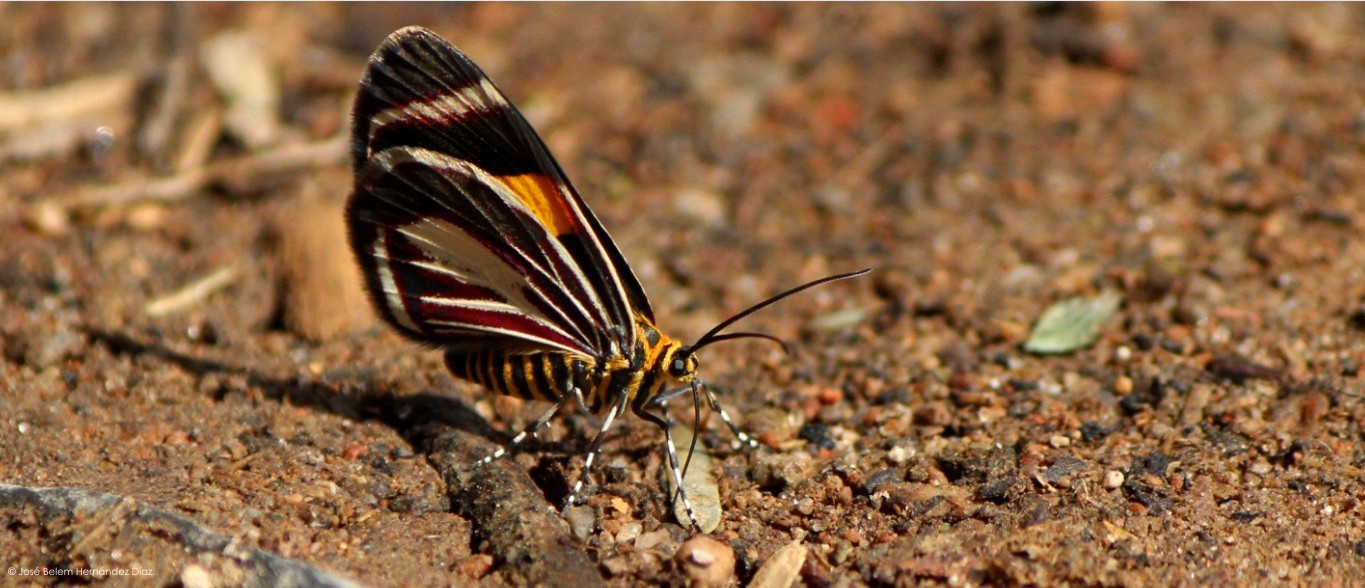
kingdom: Animalia
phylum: Arthropoda
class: Insecta
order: Lepidoptera
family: Geometridae
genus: Eutrepsia
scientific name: Eutrepsia haemataria
